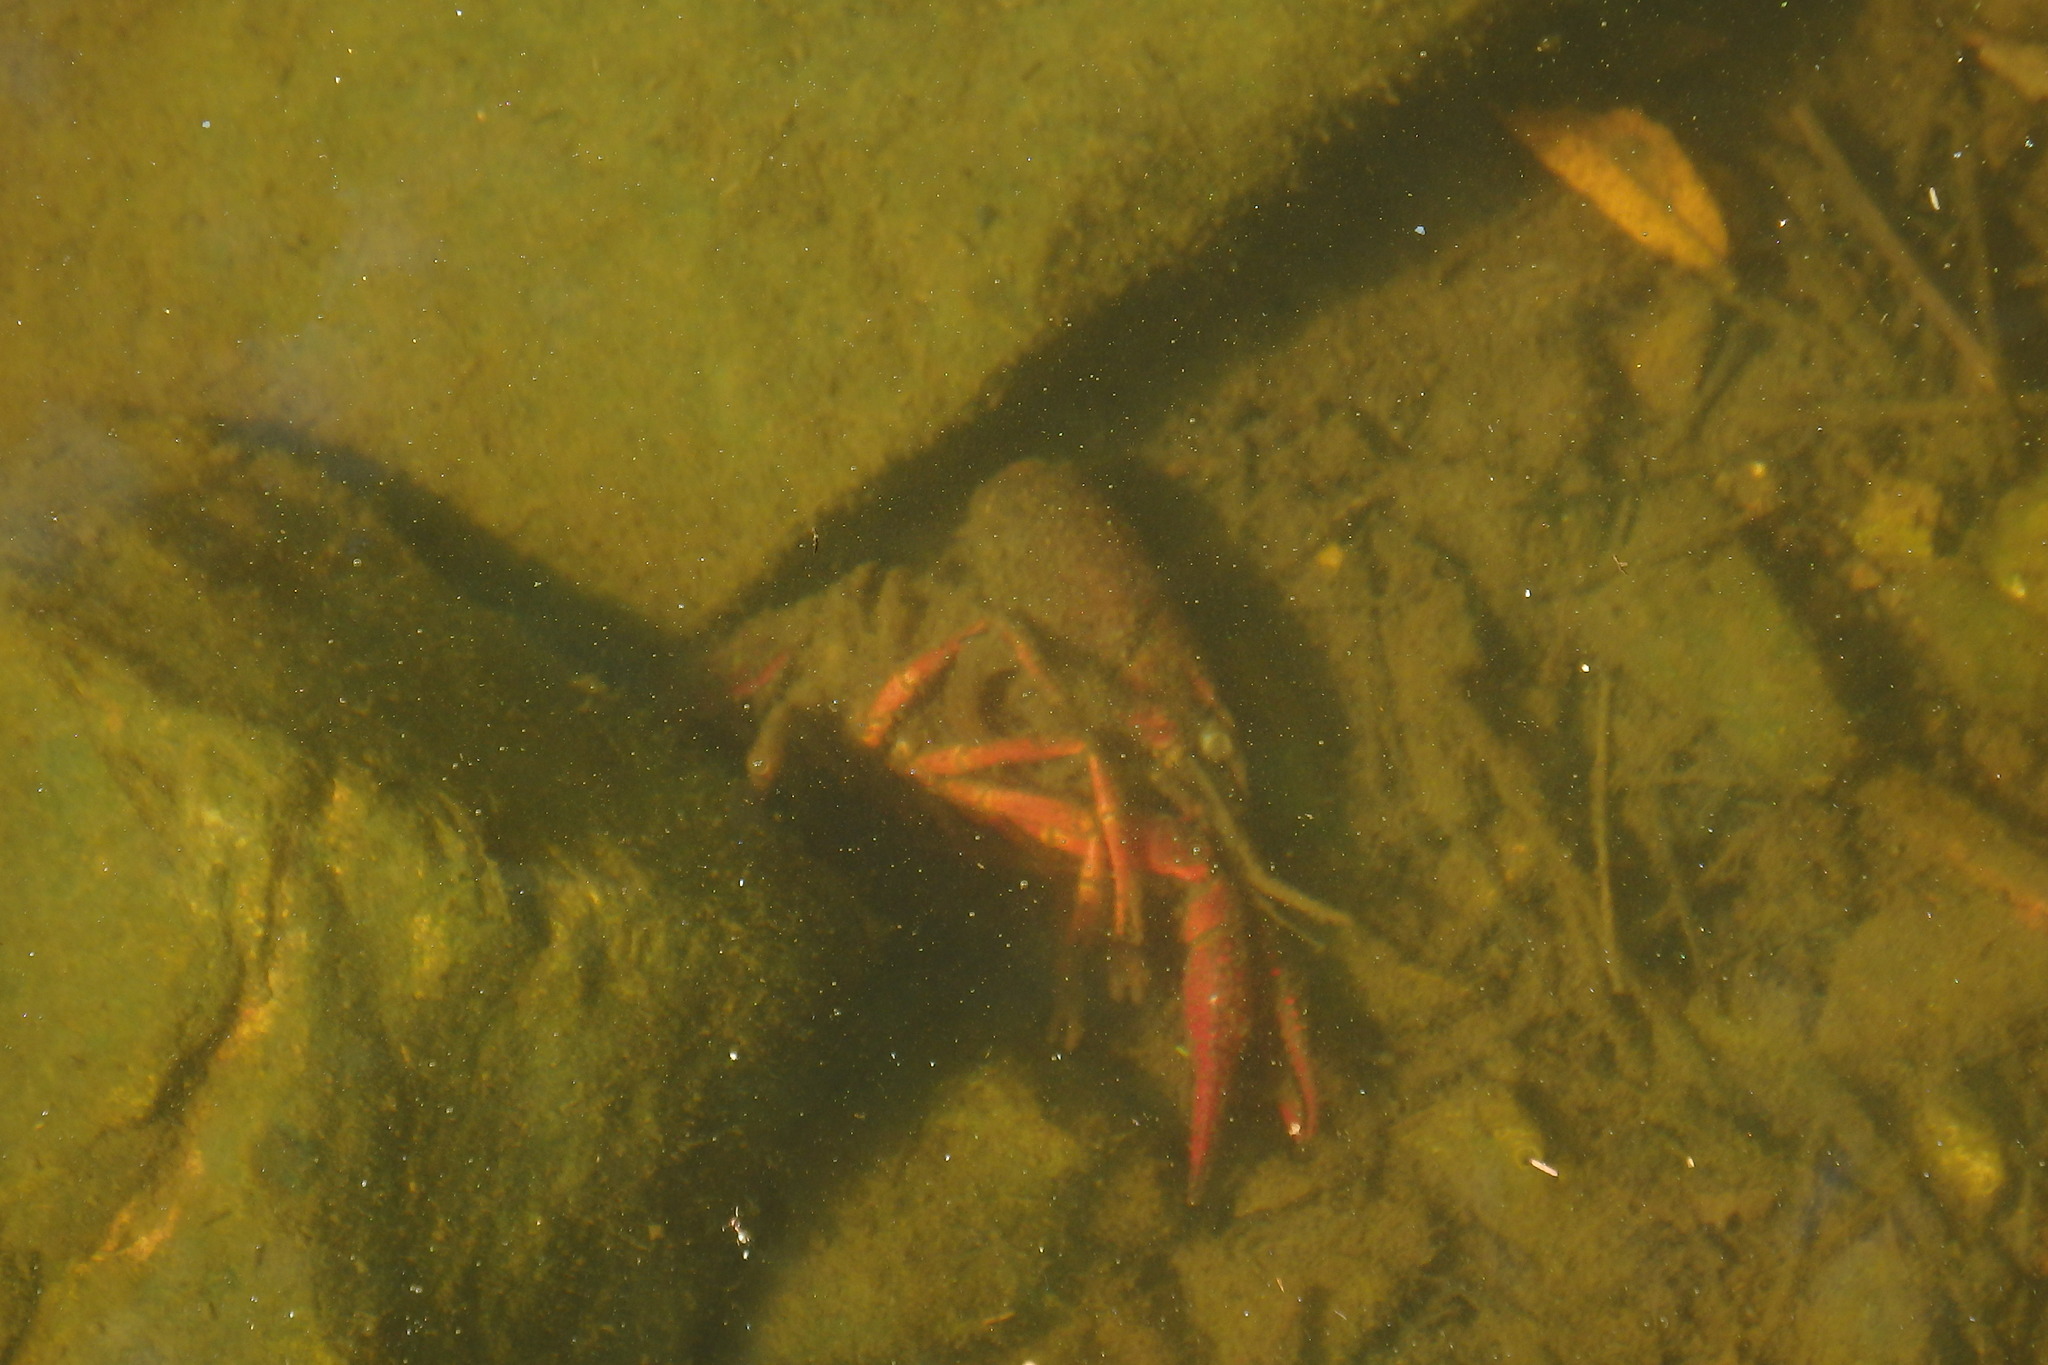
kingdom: Animalia
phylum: Arthropoda
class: Malacostraca
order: Decapoda
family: Cambaridae
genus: Procambarus
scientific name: Procambarus clarkii
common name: Red swamp crayfish
